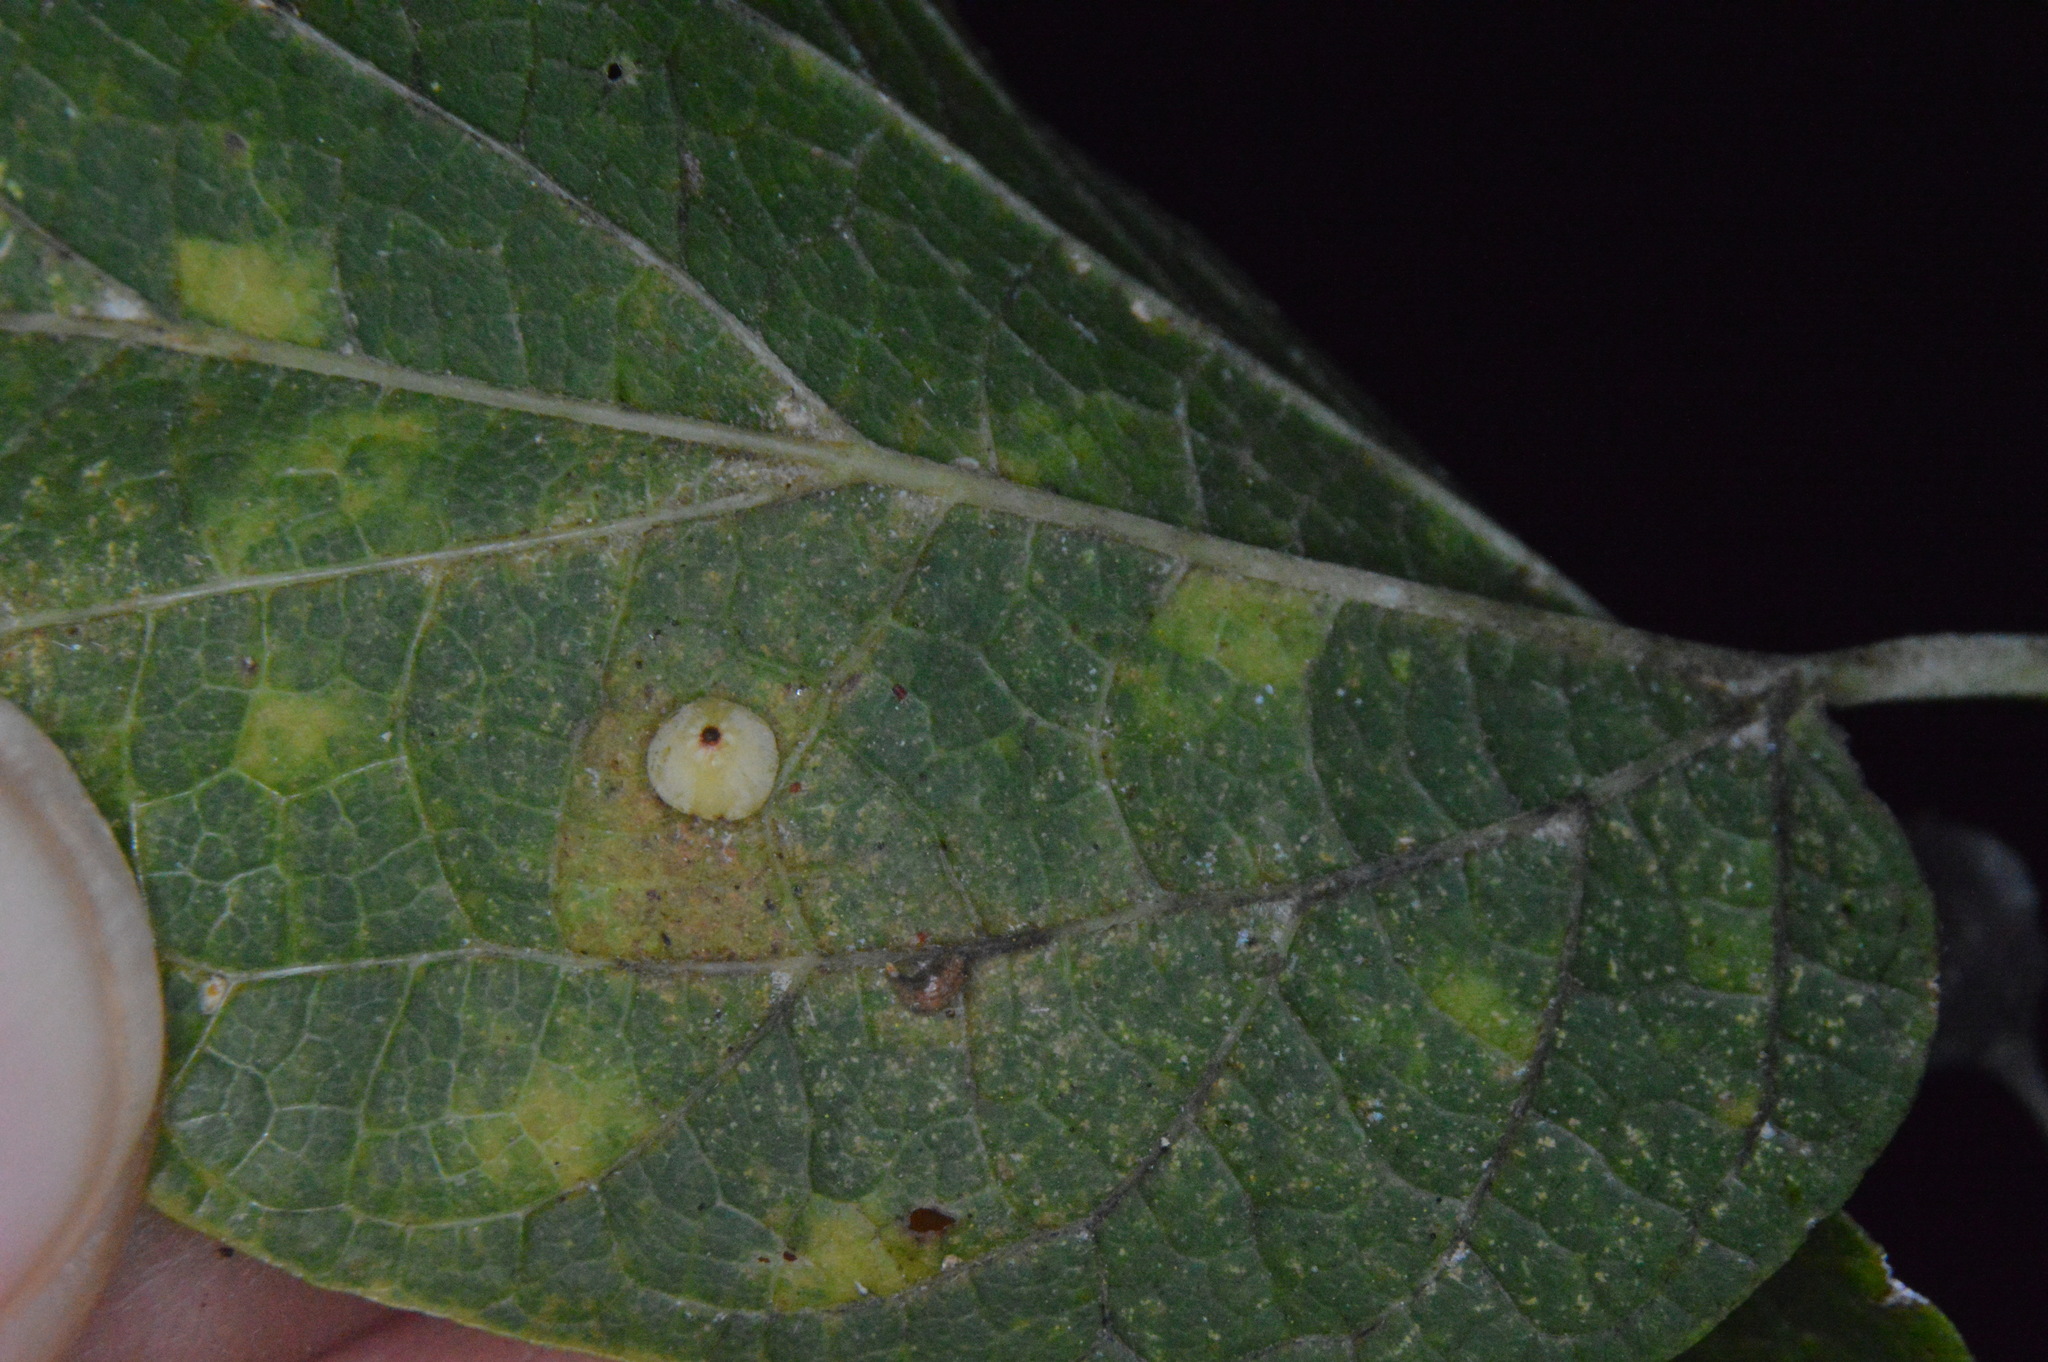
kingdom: Animalia
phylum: Arthropoda
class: Insecta
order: Diptera
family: Cecidomyiidae
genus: Celticecis
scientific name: Celticecis globosa
